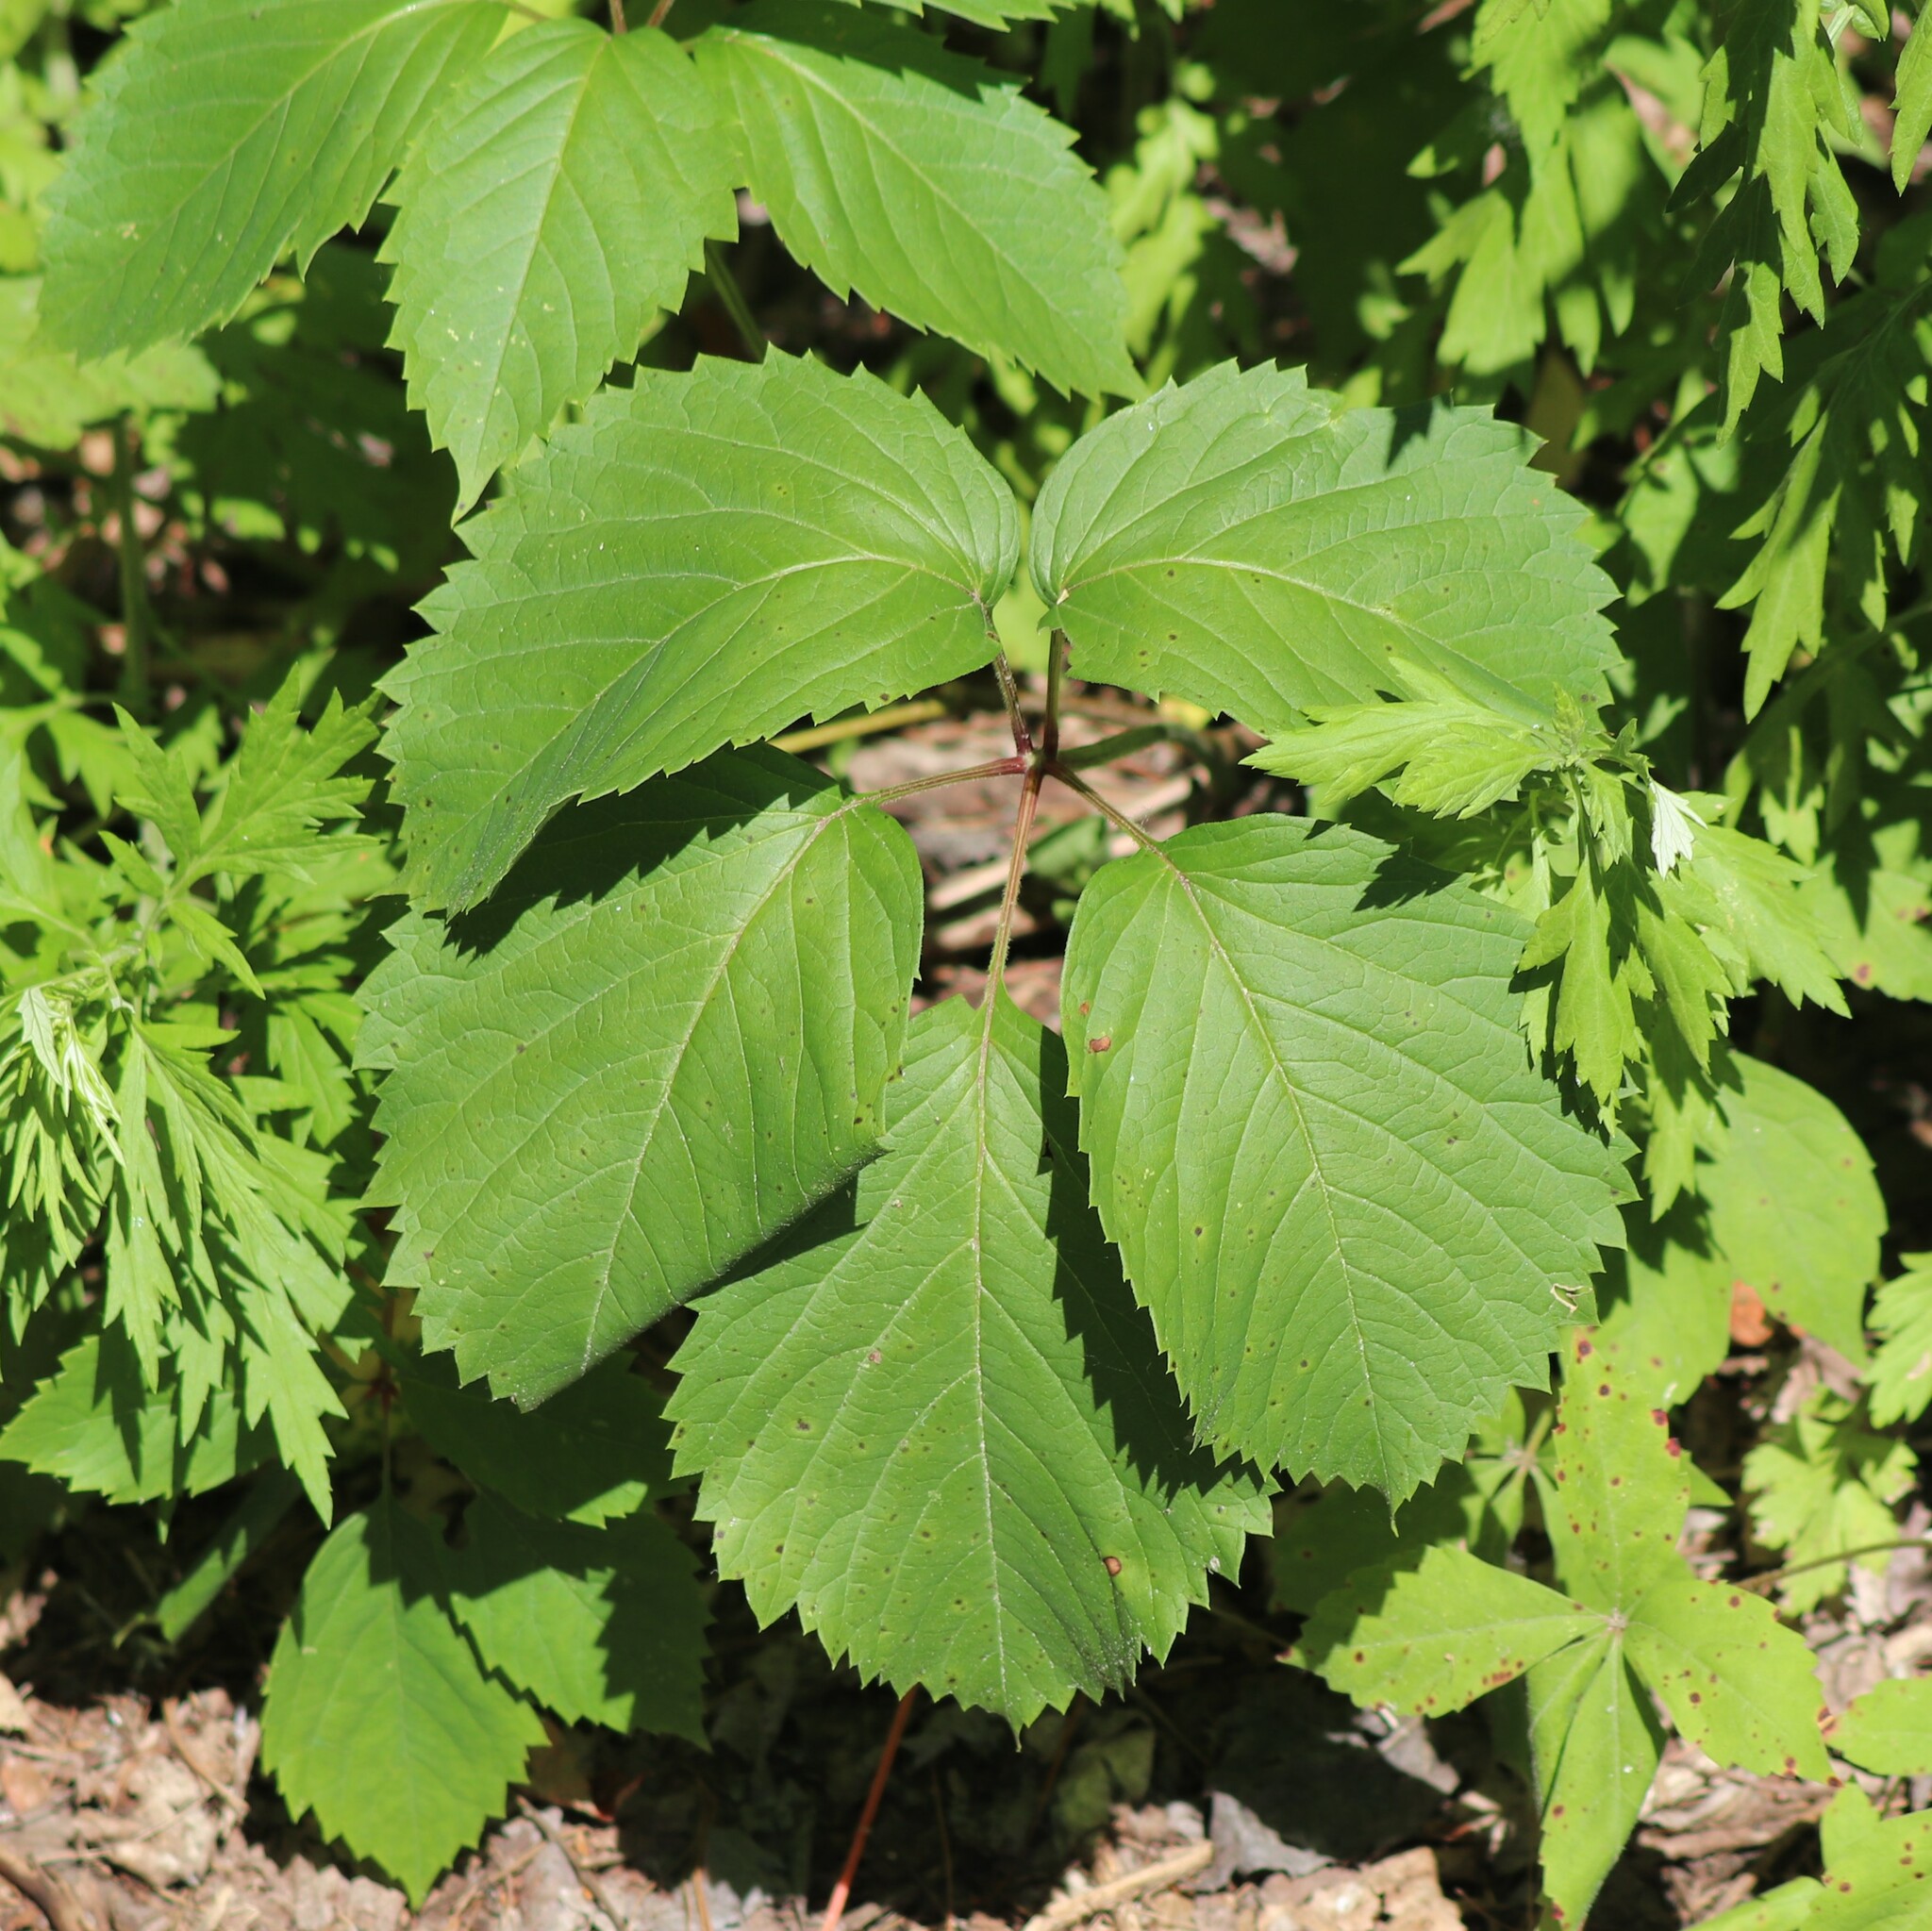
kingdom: Plantae
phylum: Tracheophyta
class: Magnoliopsida
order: Vitales
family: Vitaceae
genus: Parthenocissus
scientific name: Parthenocissus inserta
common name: False virginia-creeper
